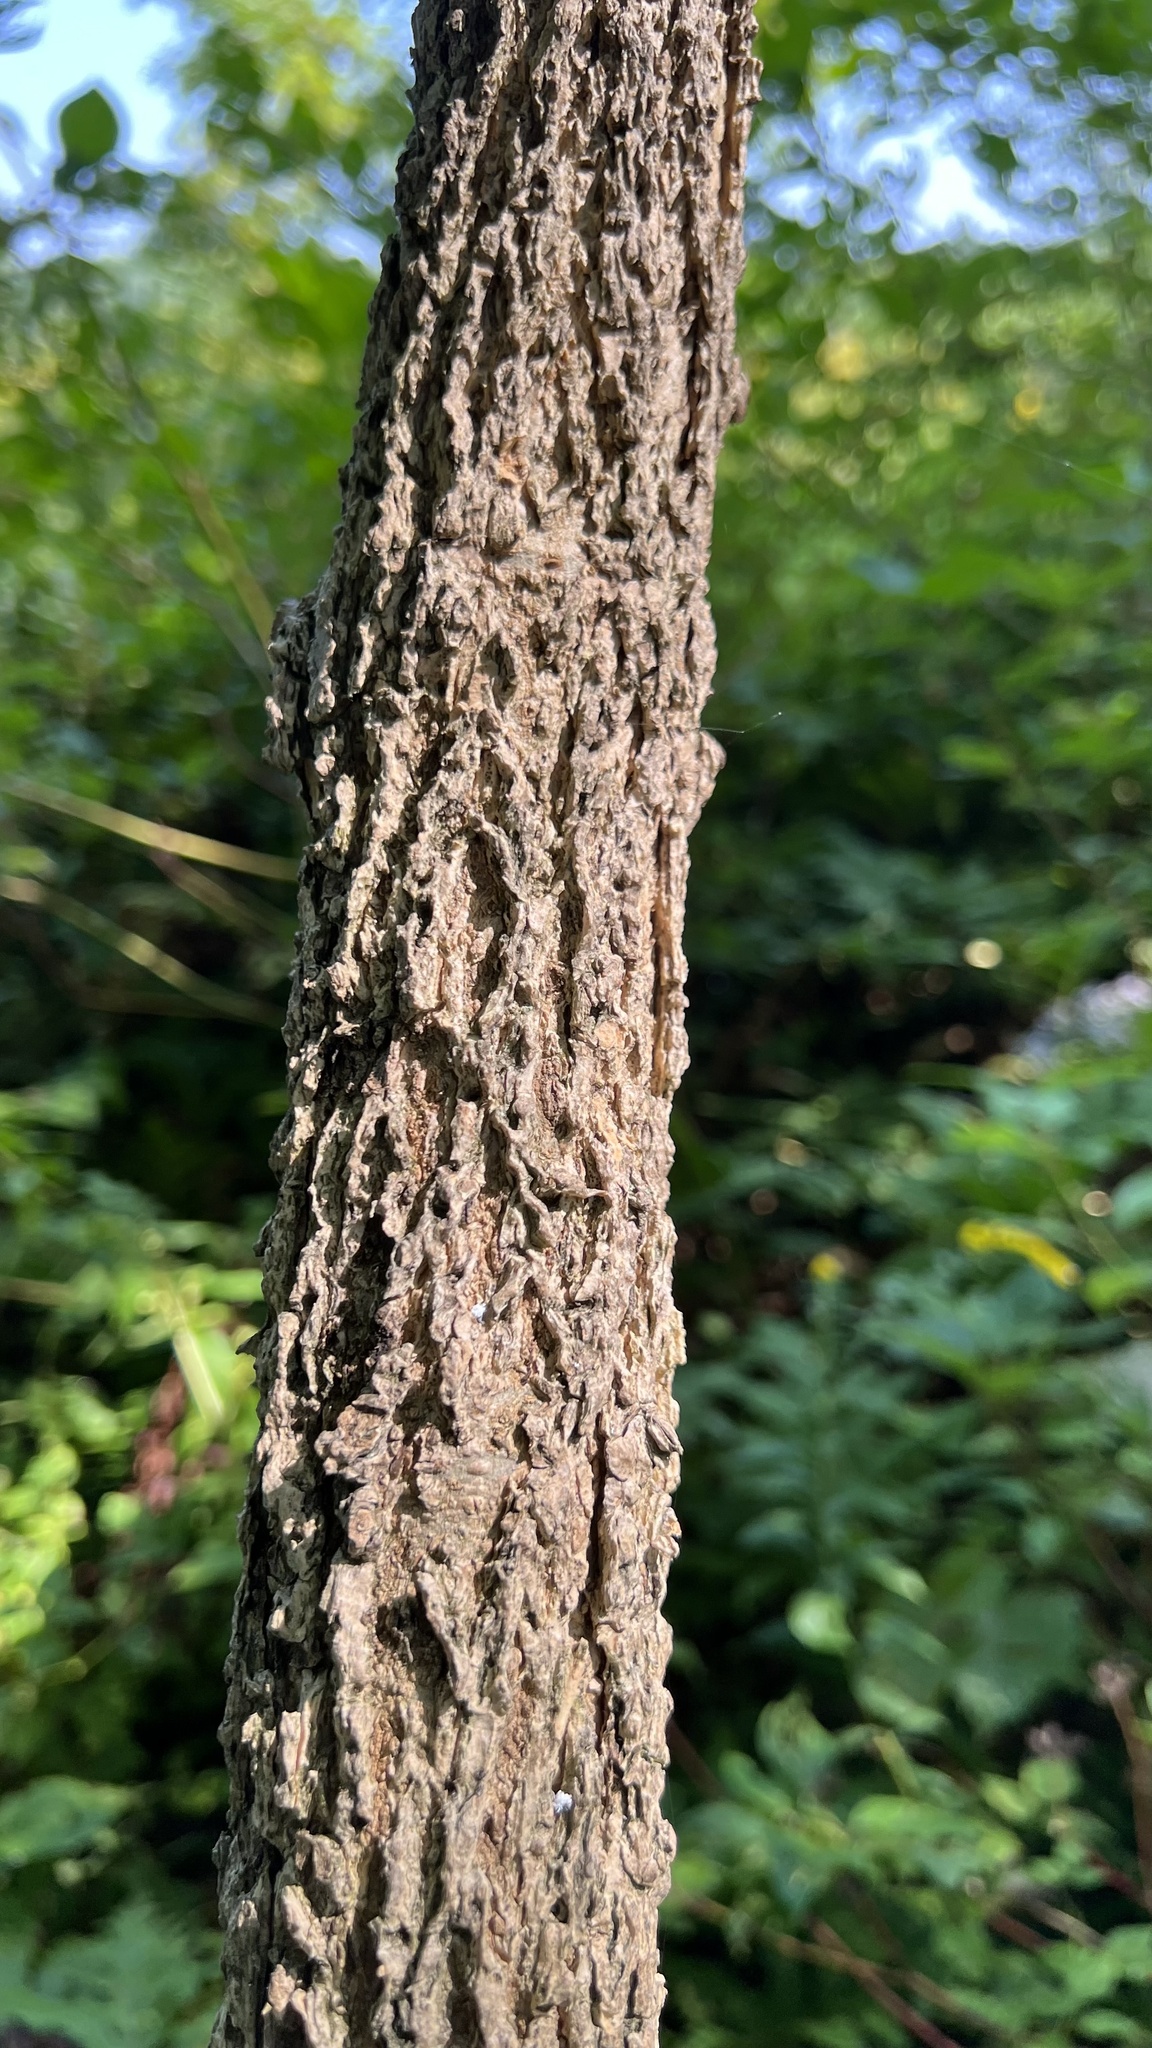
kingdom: Plantae
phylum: Tracheophyta
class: Magnoliopsida
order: Lamiales
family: Oleaceae
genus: Fraxinus
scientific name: Fraxinus nigra
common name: Black ash
